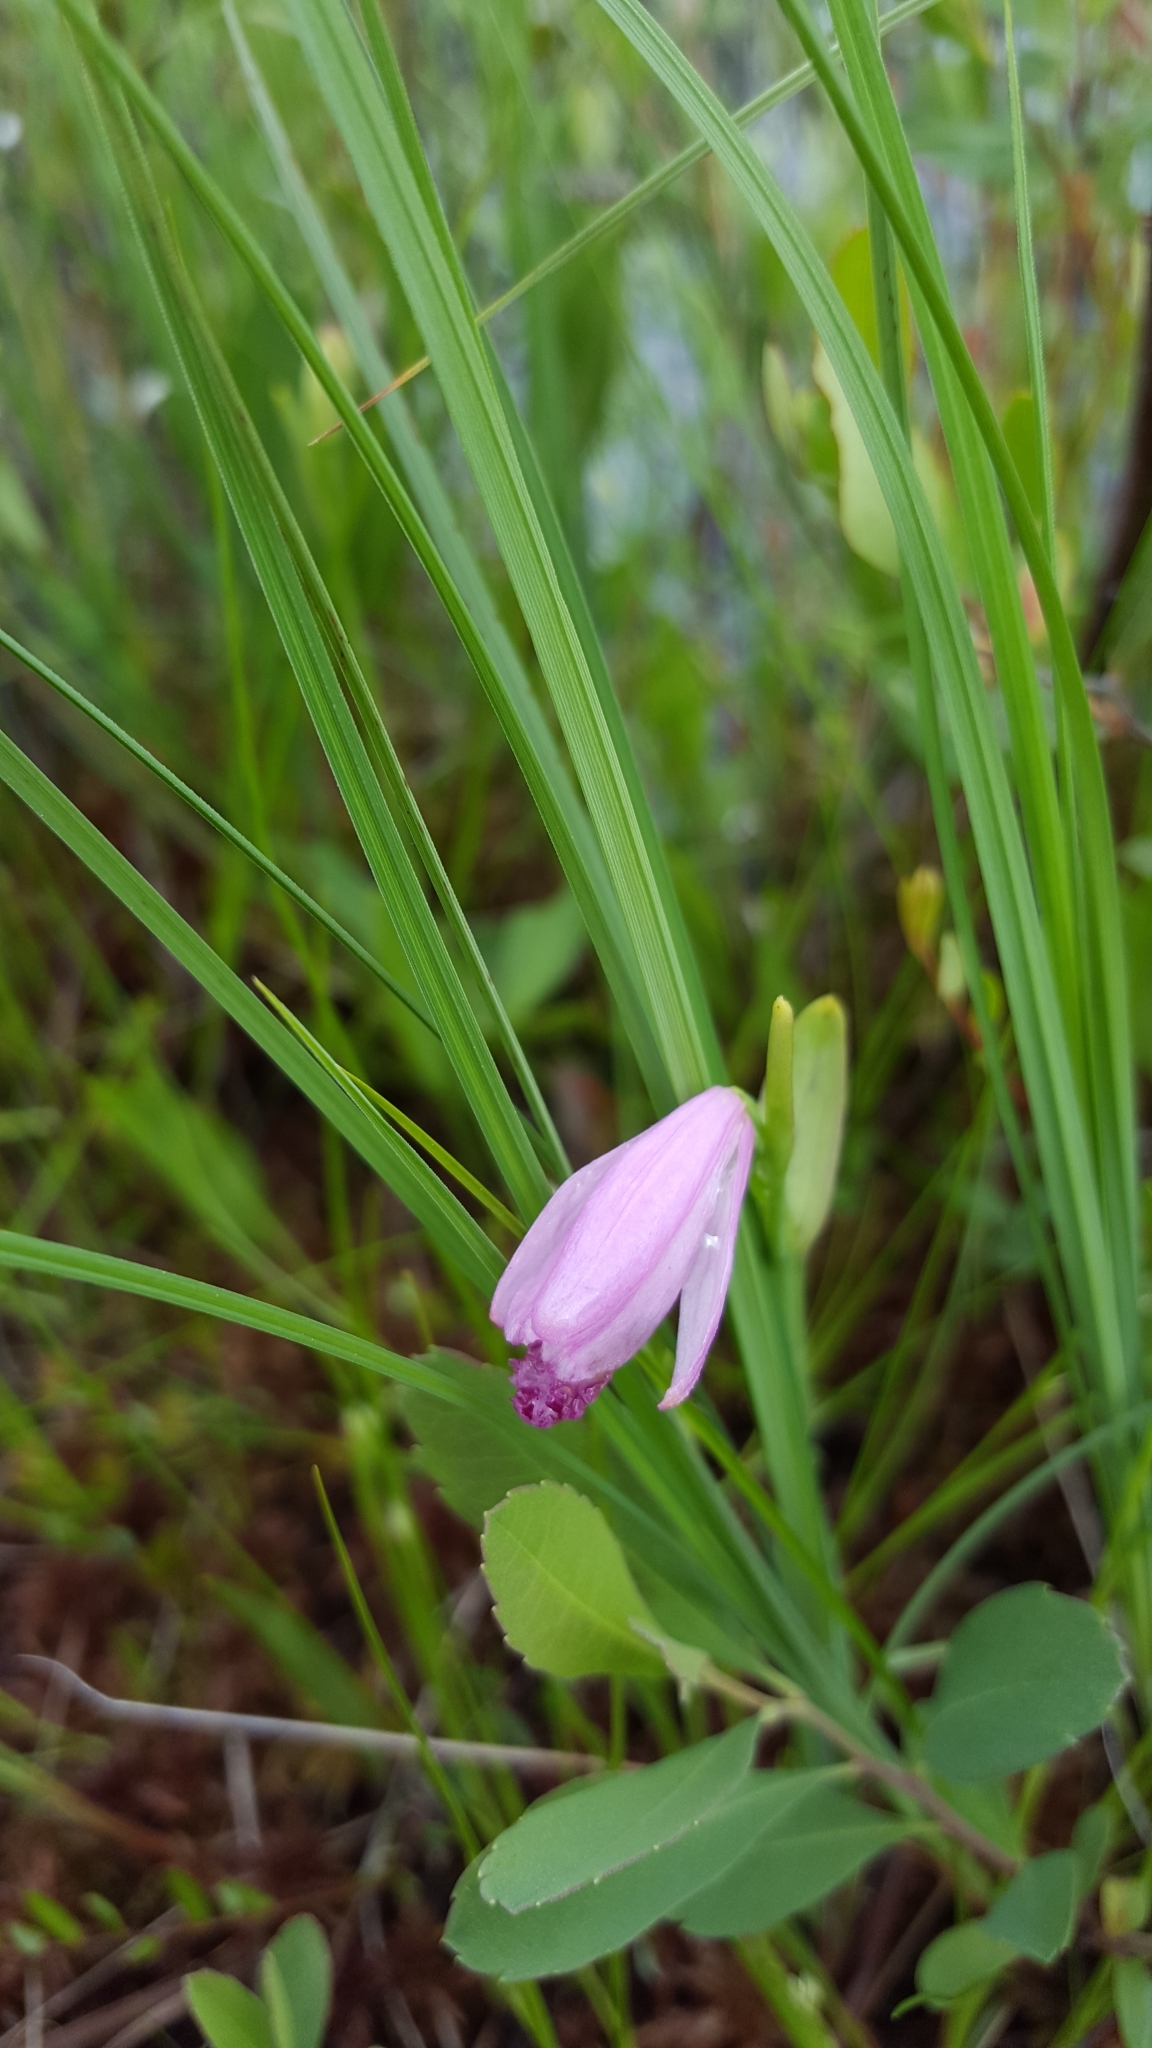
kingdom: Plantae
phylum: Tracheophyta
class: Liliopsida
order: Asparagales
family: Orchidaceae
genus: Pogonia
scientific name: Pogonia ophioglossoides
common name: Rose pogonia
